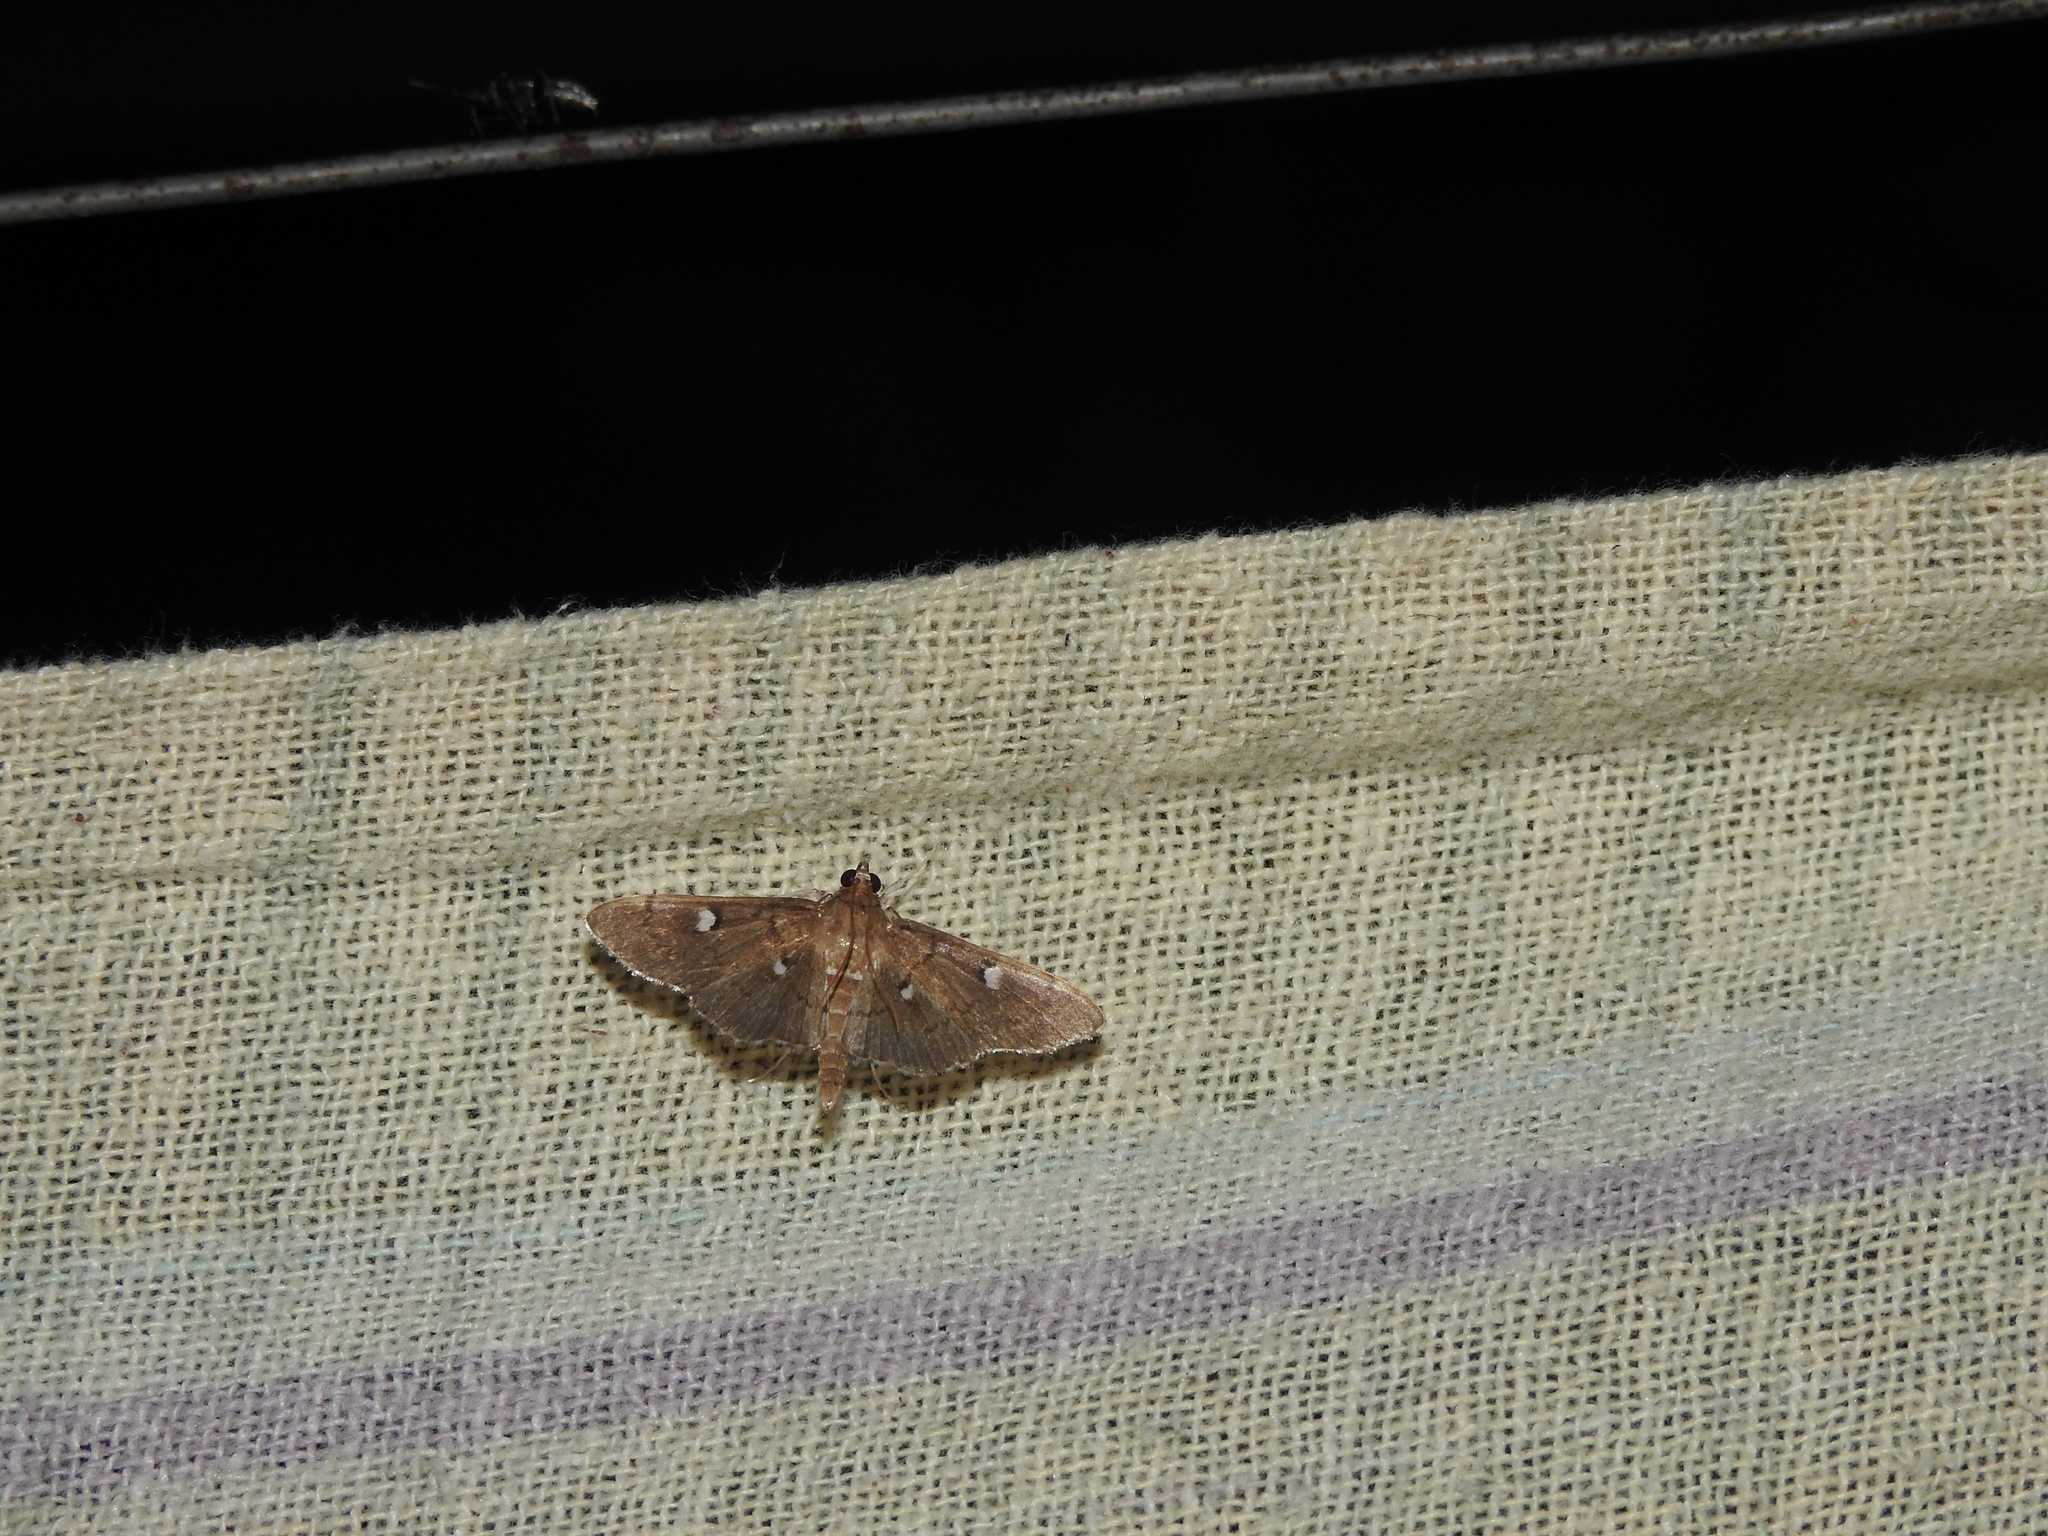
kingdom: Animalia
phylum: Arthropoda
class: Insecta
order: Lepidoptera
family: Crambidae
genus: Phostria
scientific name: Phostria discipunctalis
